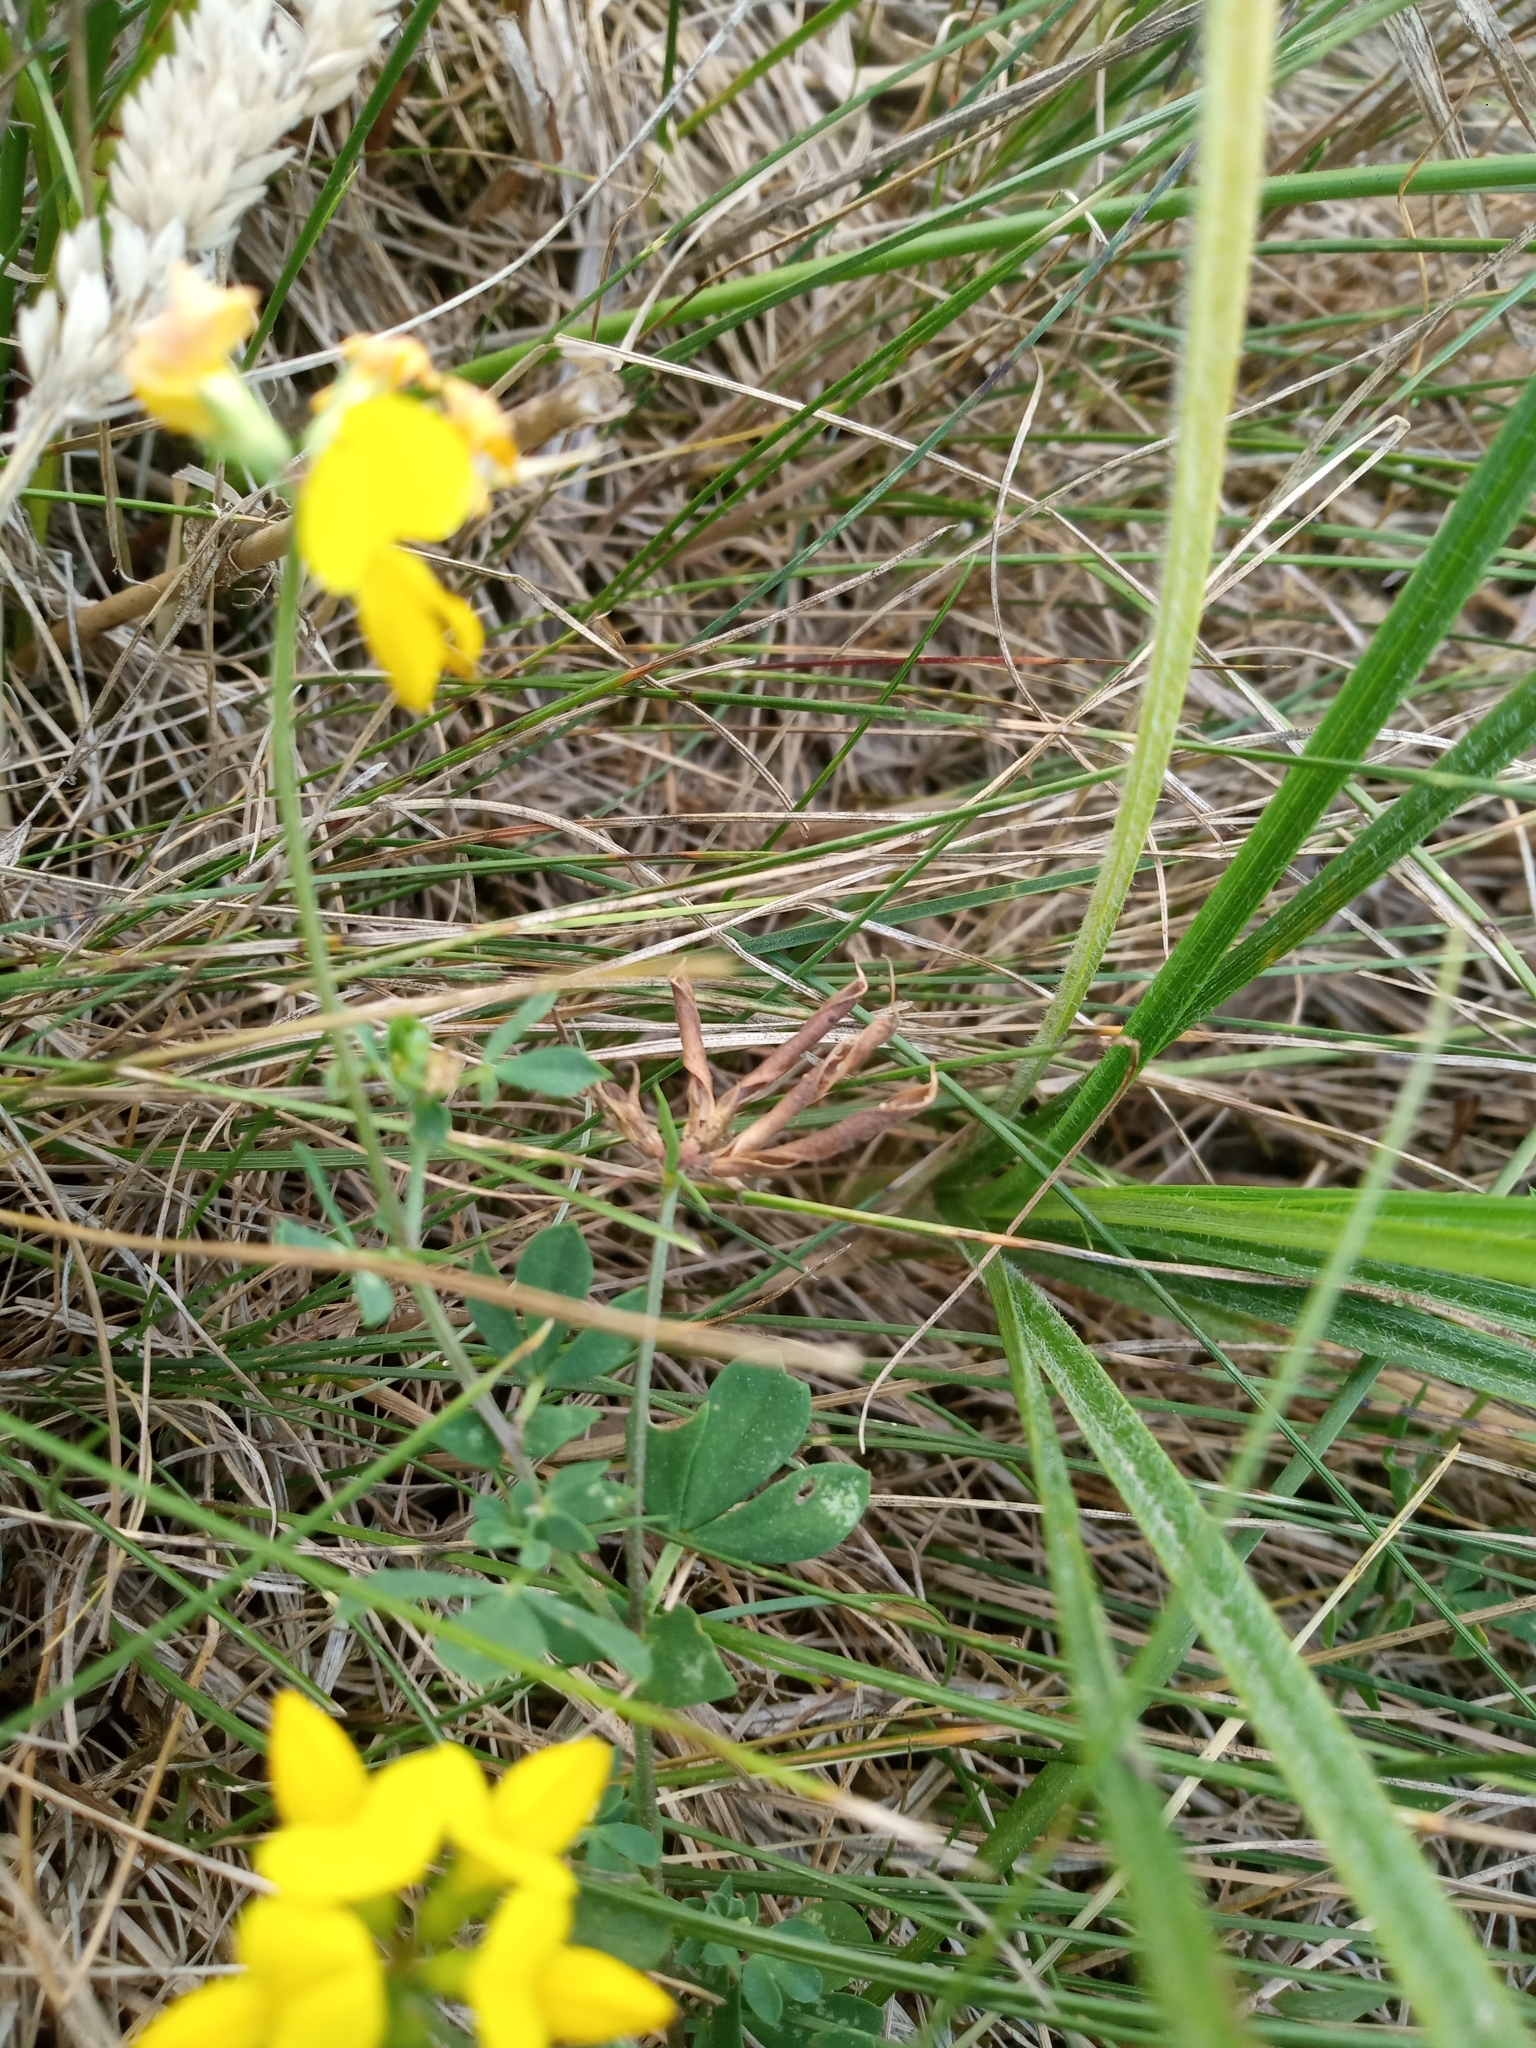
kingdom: Plantae
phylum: Tracheophyta
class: Magnoliopsida
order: Fabales
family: Fabaceae
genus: Lotus
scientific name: Lotus corniculatus
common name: Common bird's-foot-trefoil
